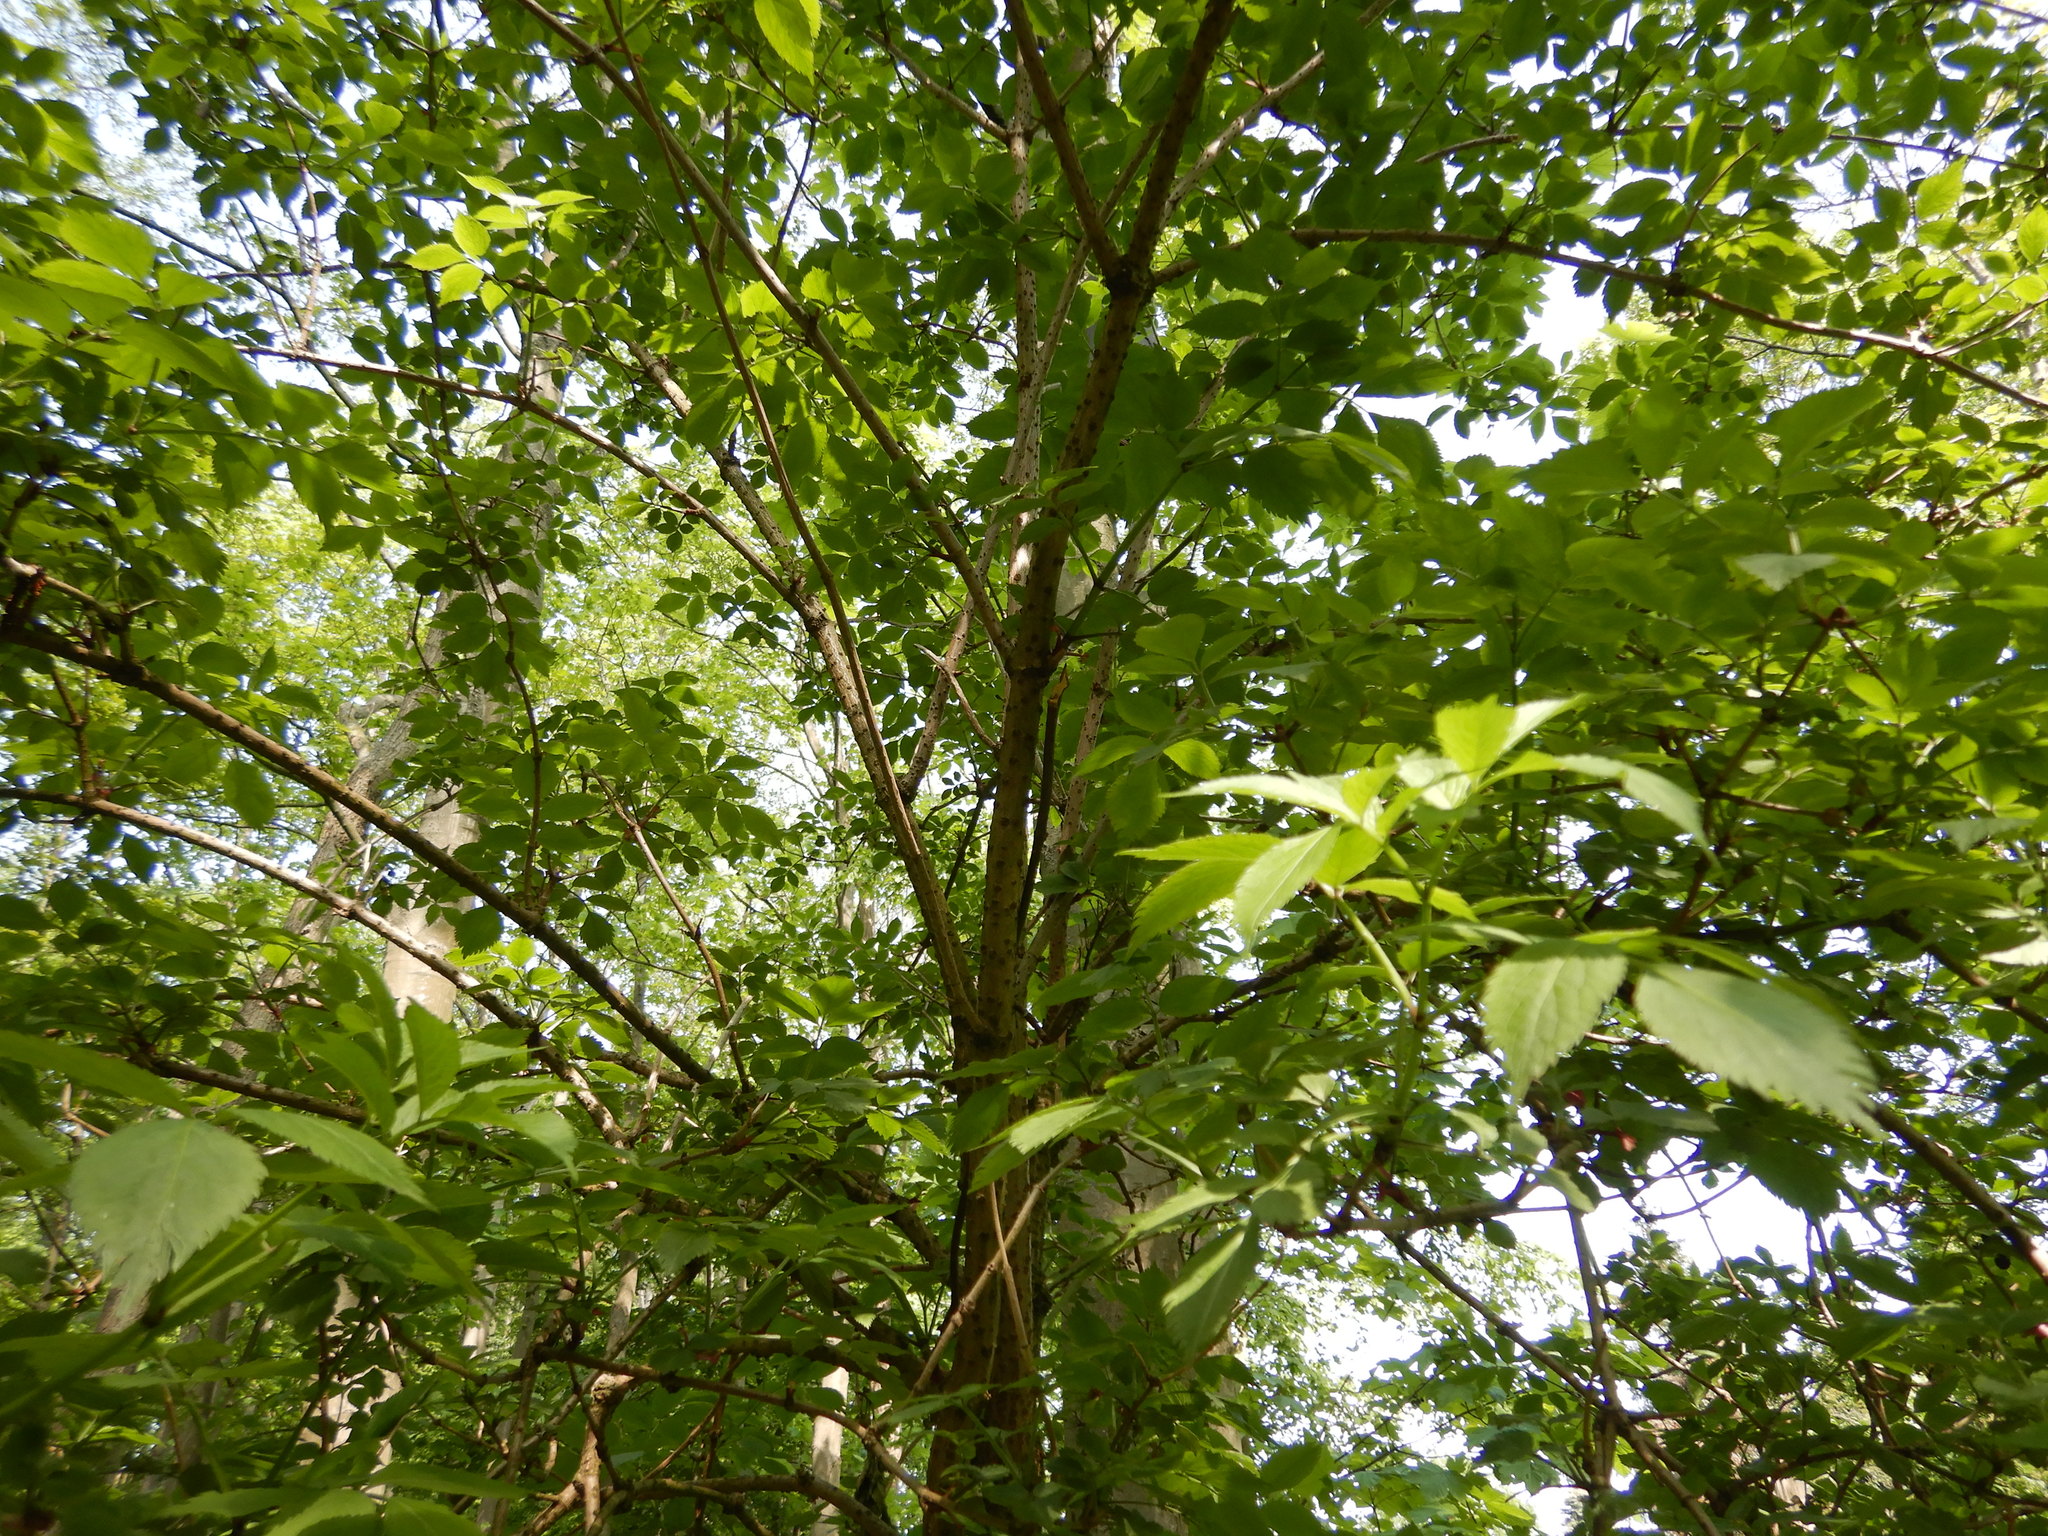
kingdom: Plantae
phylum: Tracheophyta
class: Magnoliopsida
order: Dipsacales
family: Viburnaceae
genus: Sambucus
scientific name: Sambucus nigra
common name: Elder
